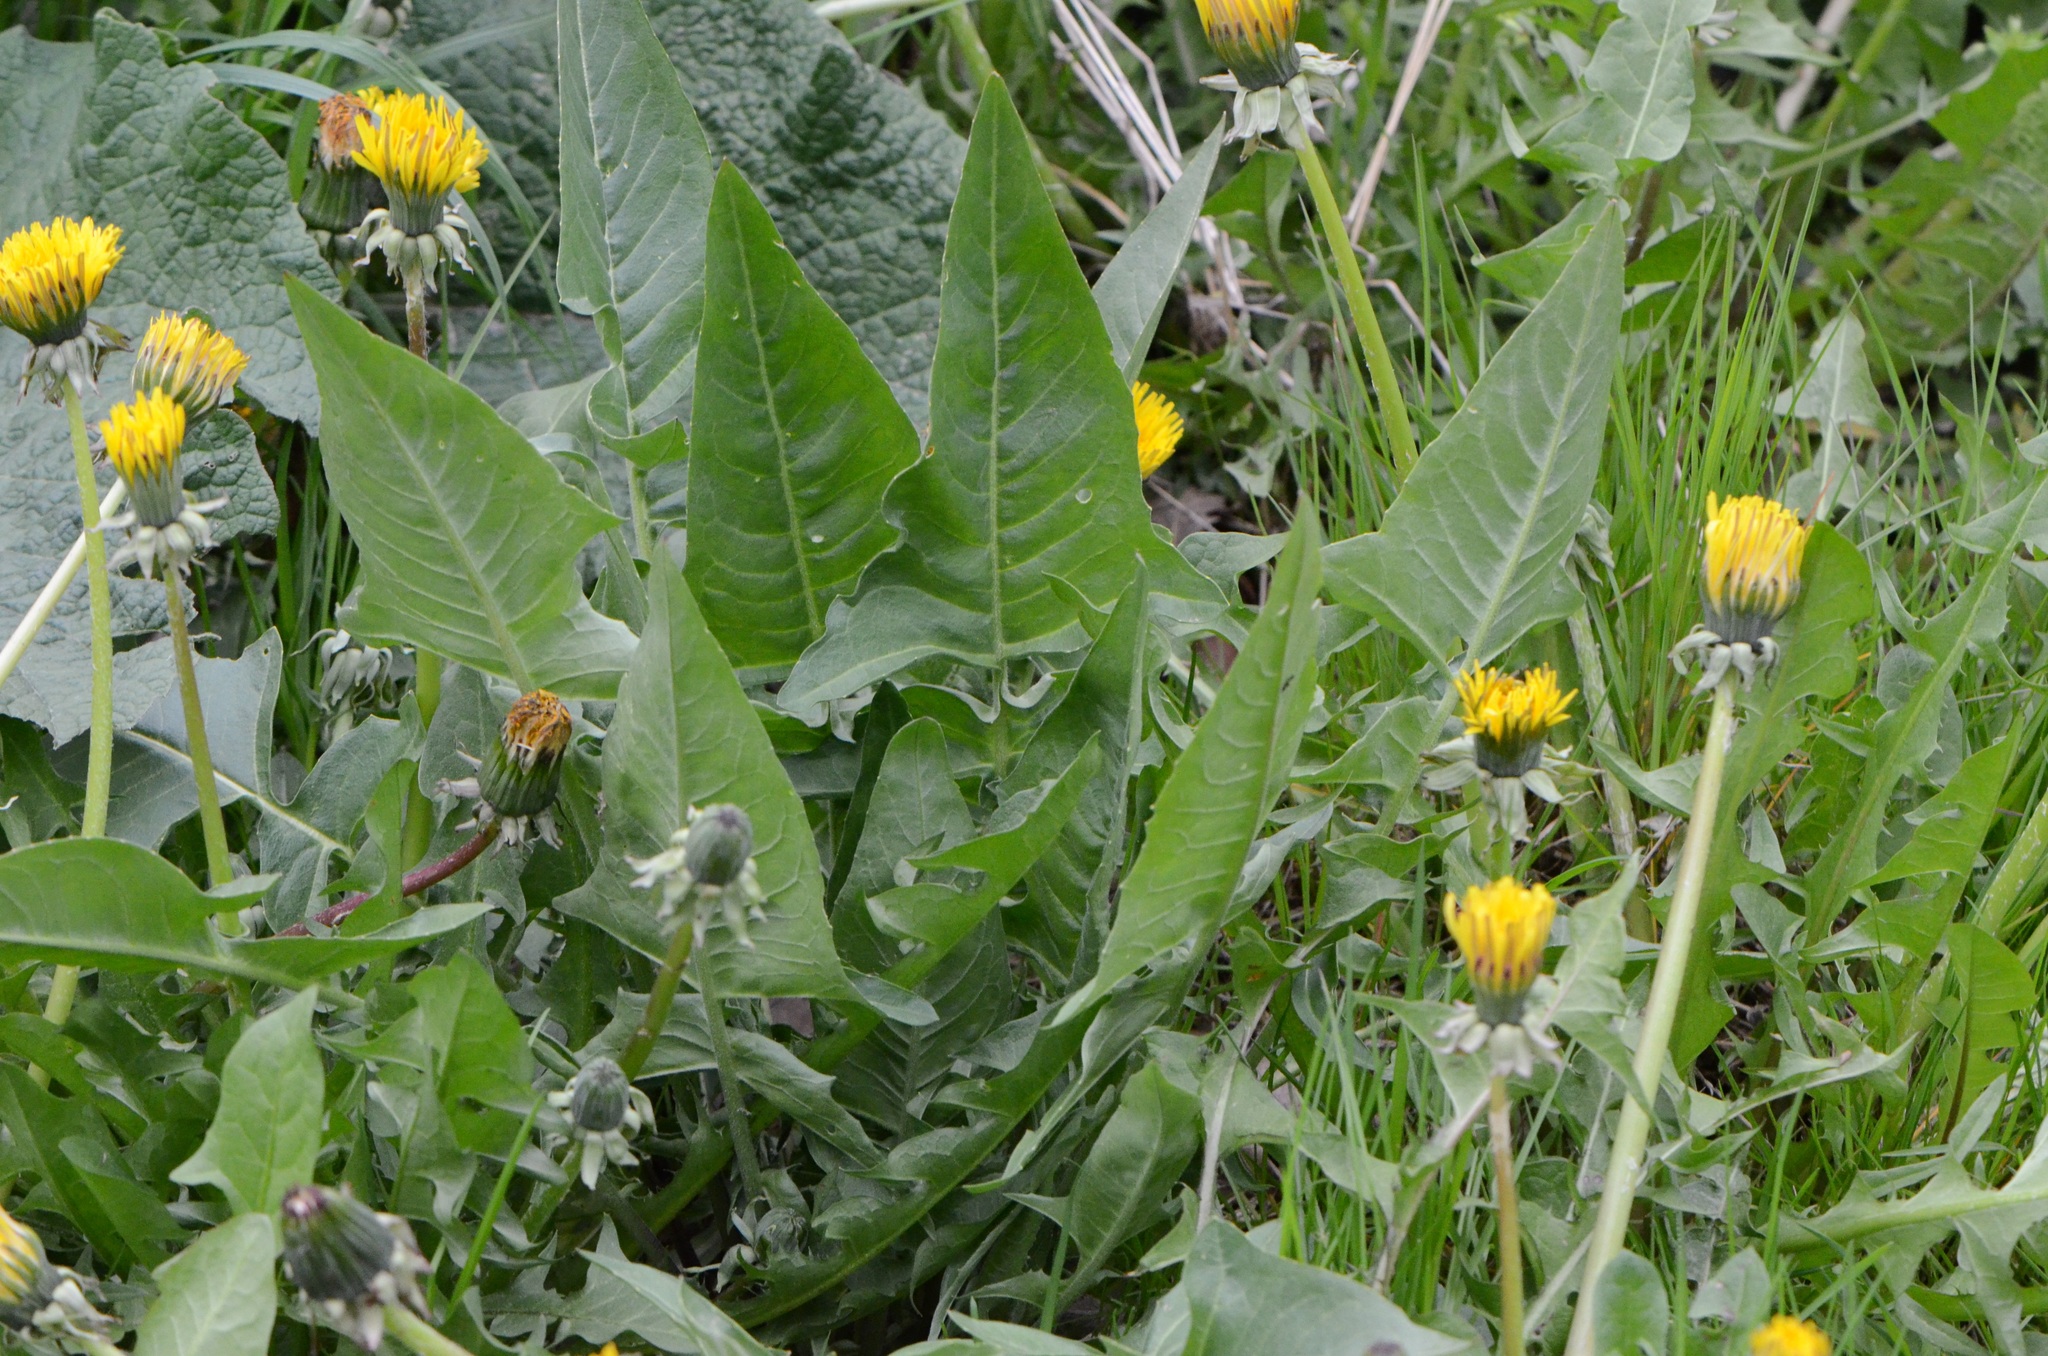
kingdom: Plantae
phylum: Tracheophyta
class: Magnoliopsida
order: Brassicales
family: Brassicaceae
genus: Bunias
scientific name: Bunias orientalis
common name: Warty-cabbage
